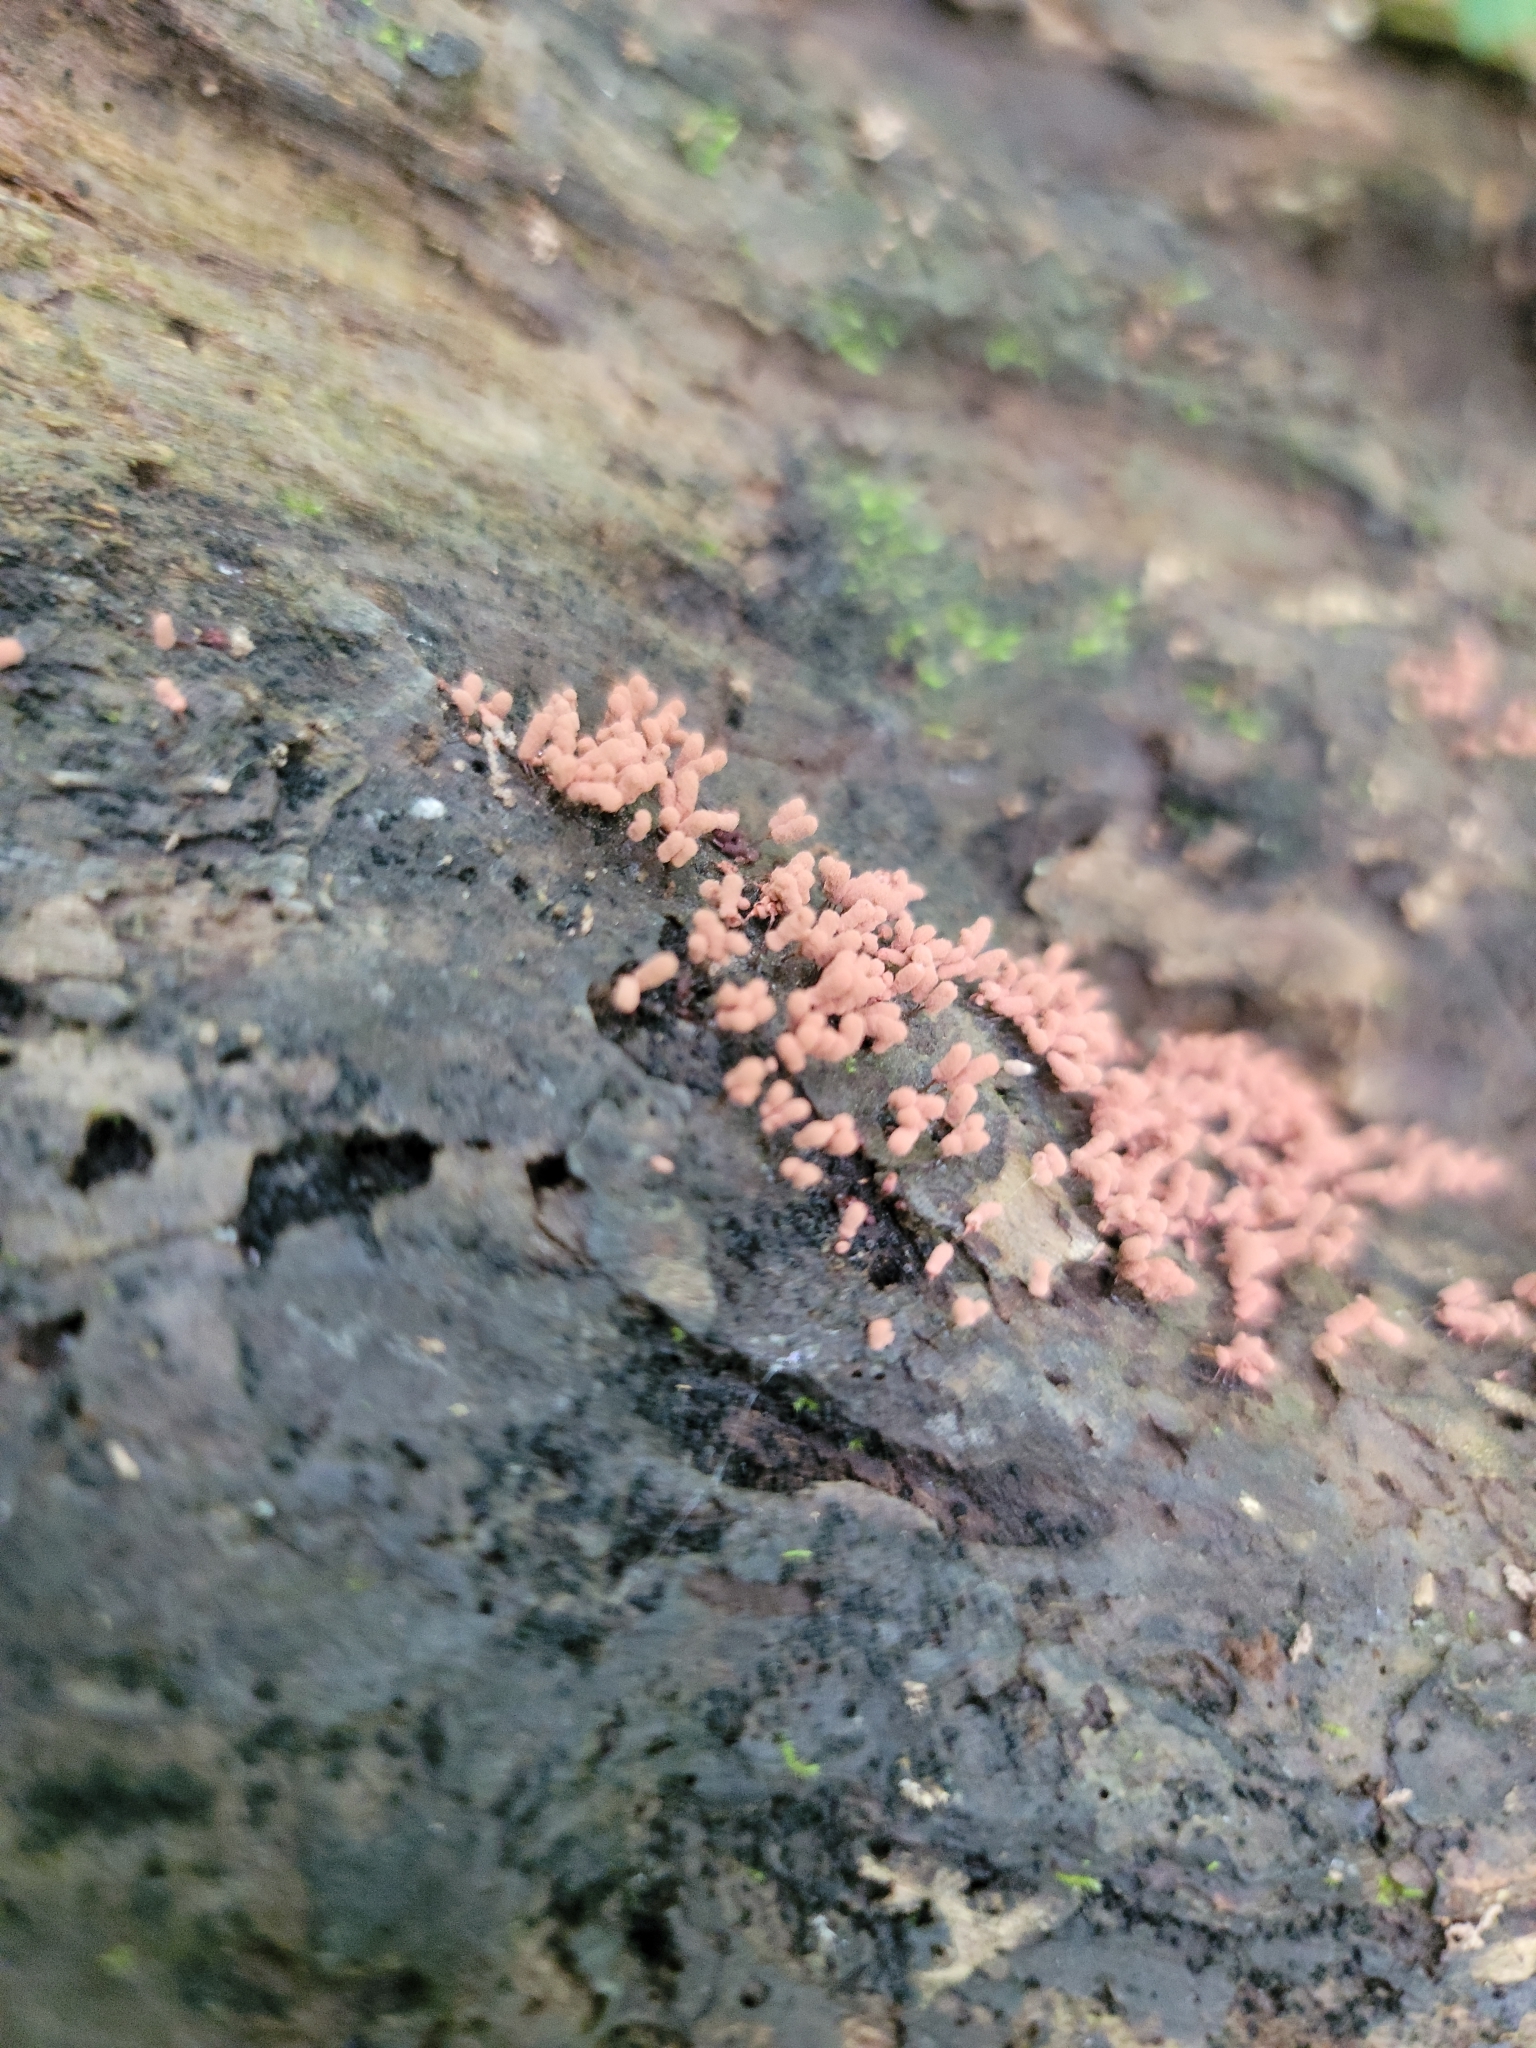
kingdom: Protozoa
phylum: Mycetozoa
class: Myxomycetes
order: Trichiales
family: Arcyriaceae
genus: Arcyria
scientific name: Arcyria denudata
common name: Carnival candy slime mold
